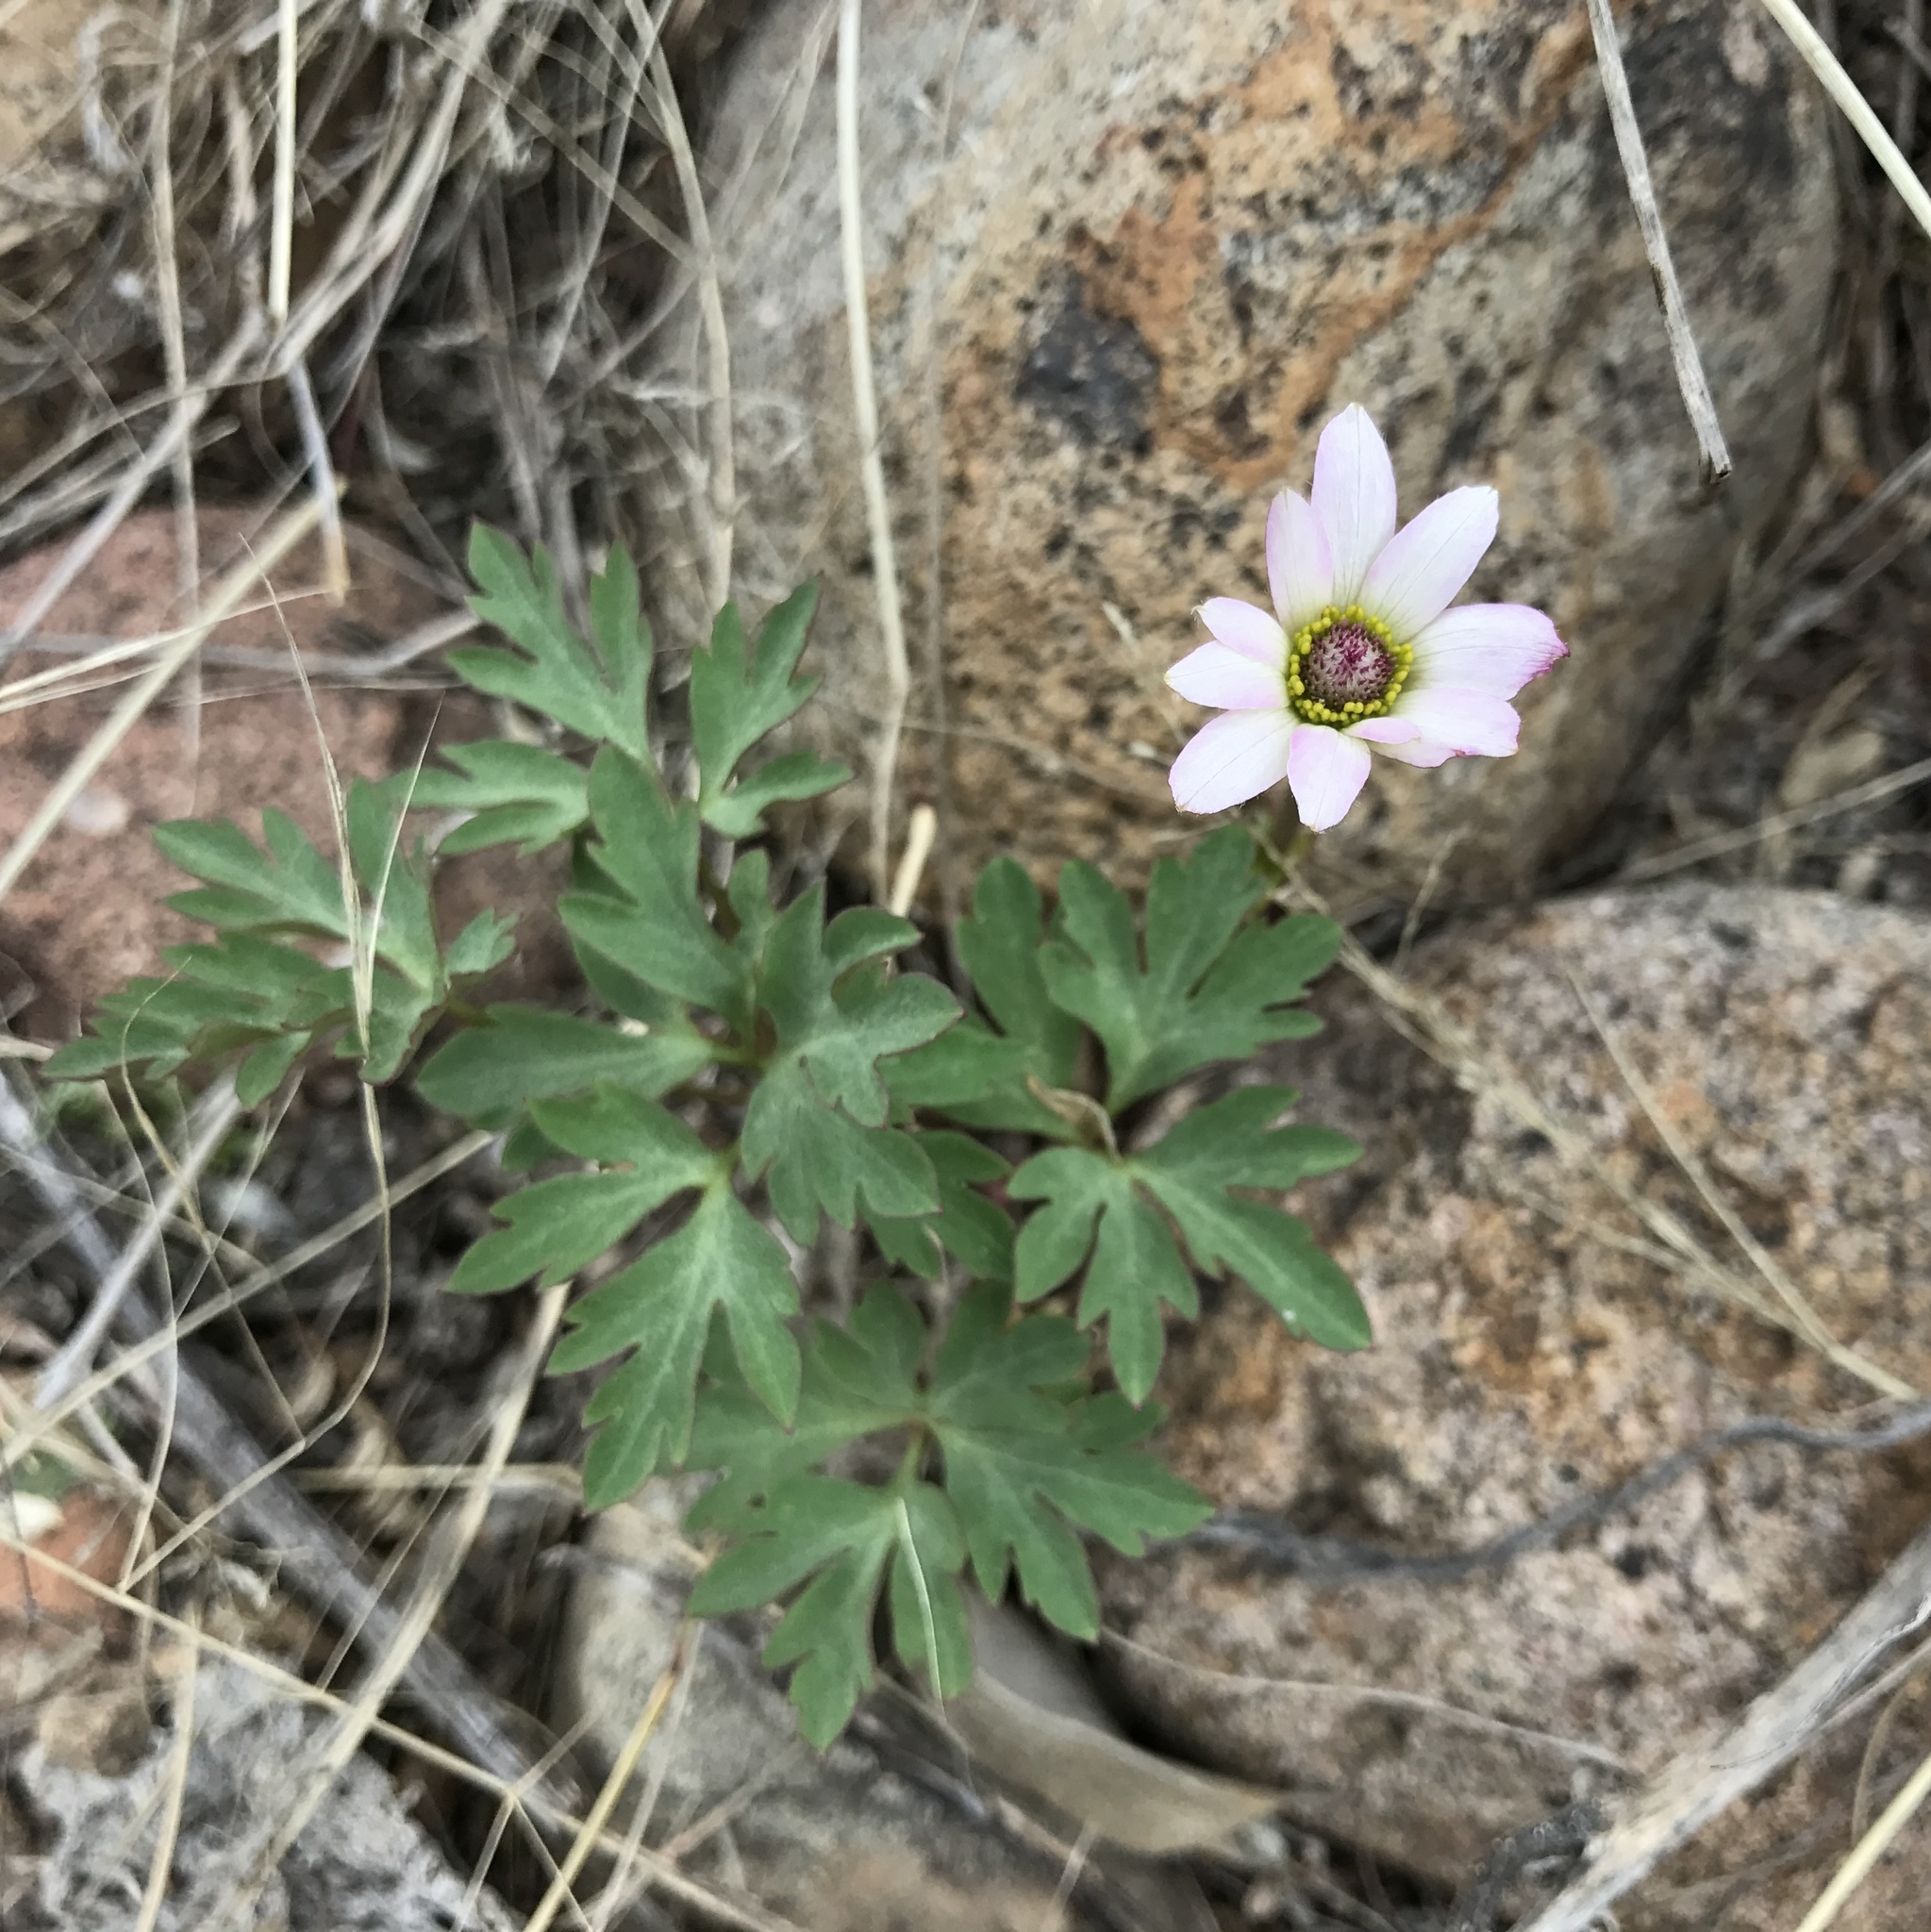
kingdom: Plantae
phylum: Tracheophyta
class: Magnoliopsida
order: Ranunculales
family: Ranunculaceae
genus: Anemone
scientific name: Anemone tuberosa
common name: Desert anemone
